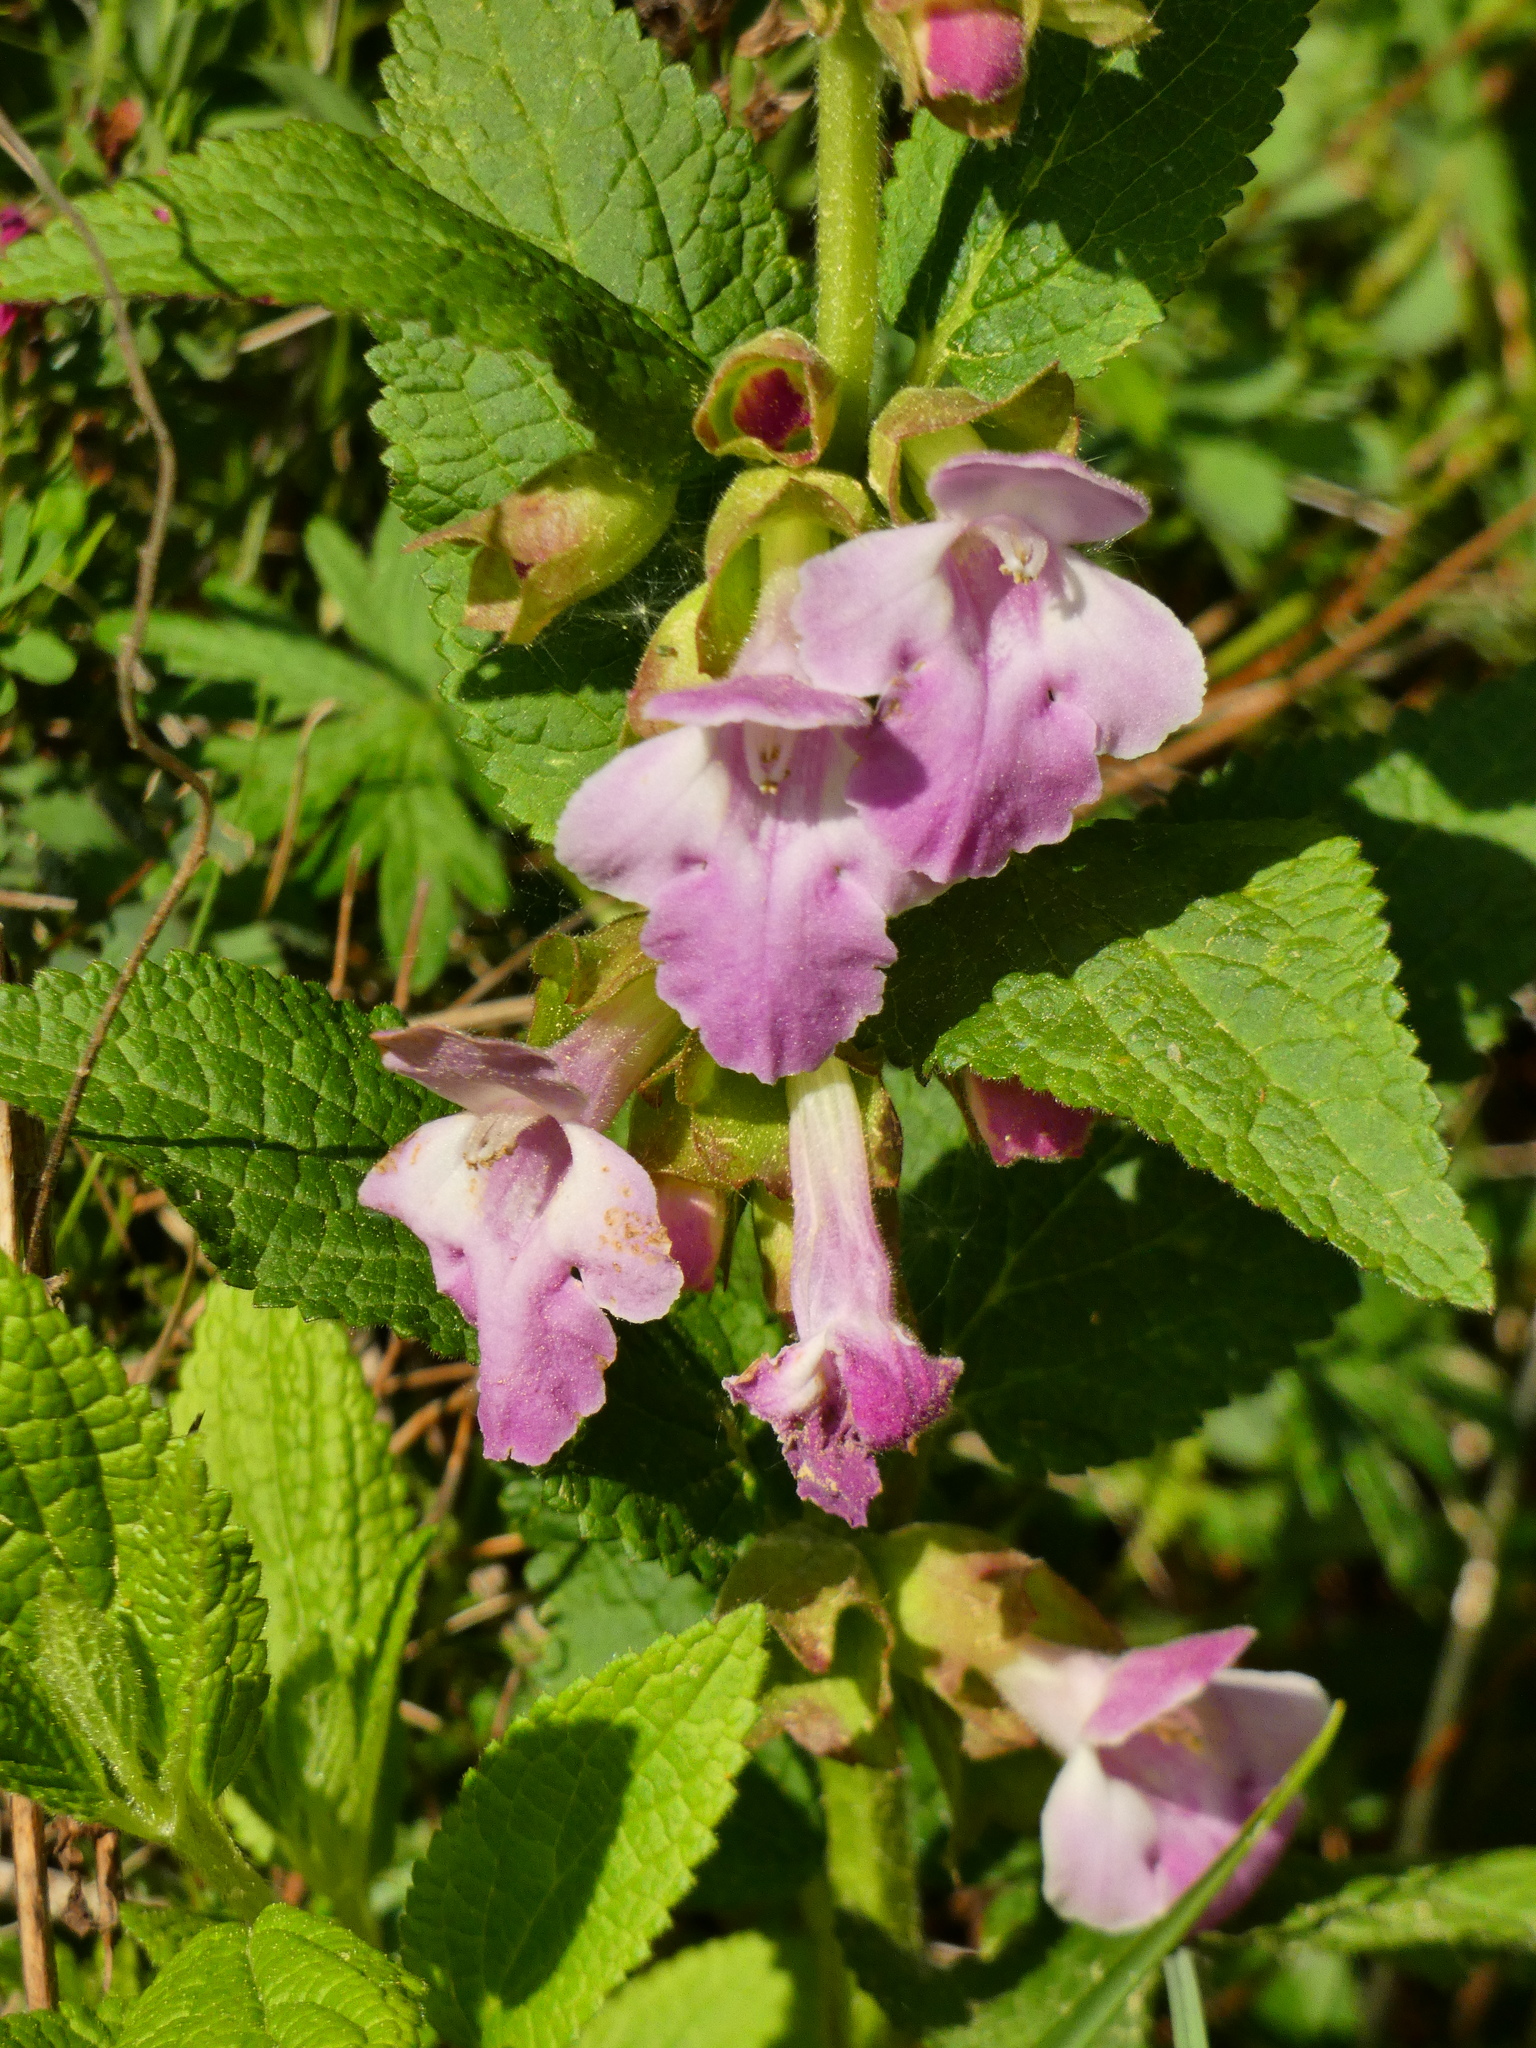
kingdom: Plantae
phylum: Tracheophyta
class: Magnoliopsida
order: Lamiales
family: Lamiaceae
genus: Melittis
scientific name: Melittis melissophyllum
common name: Bastard balm
